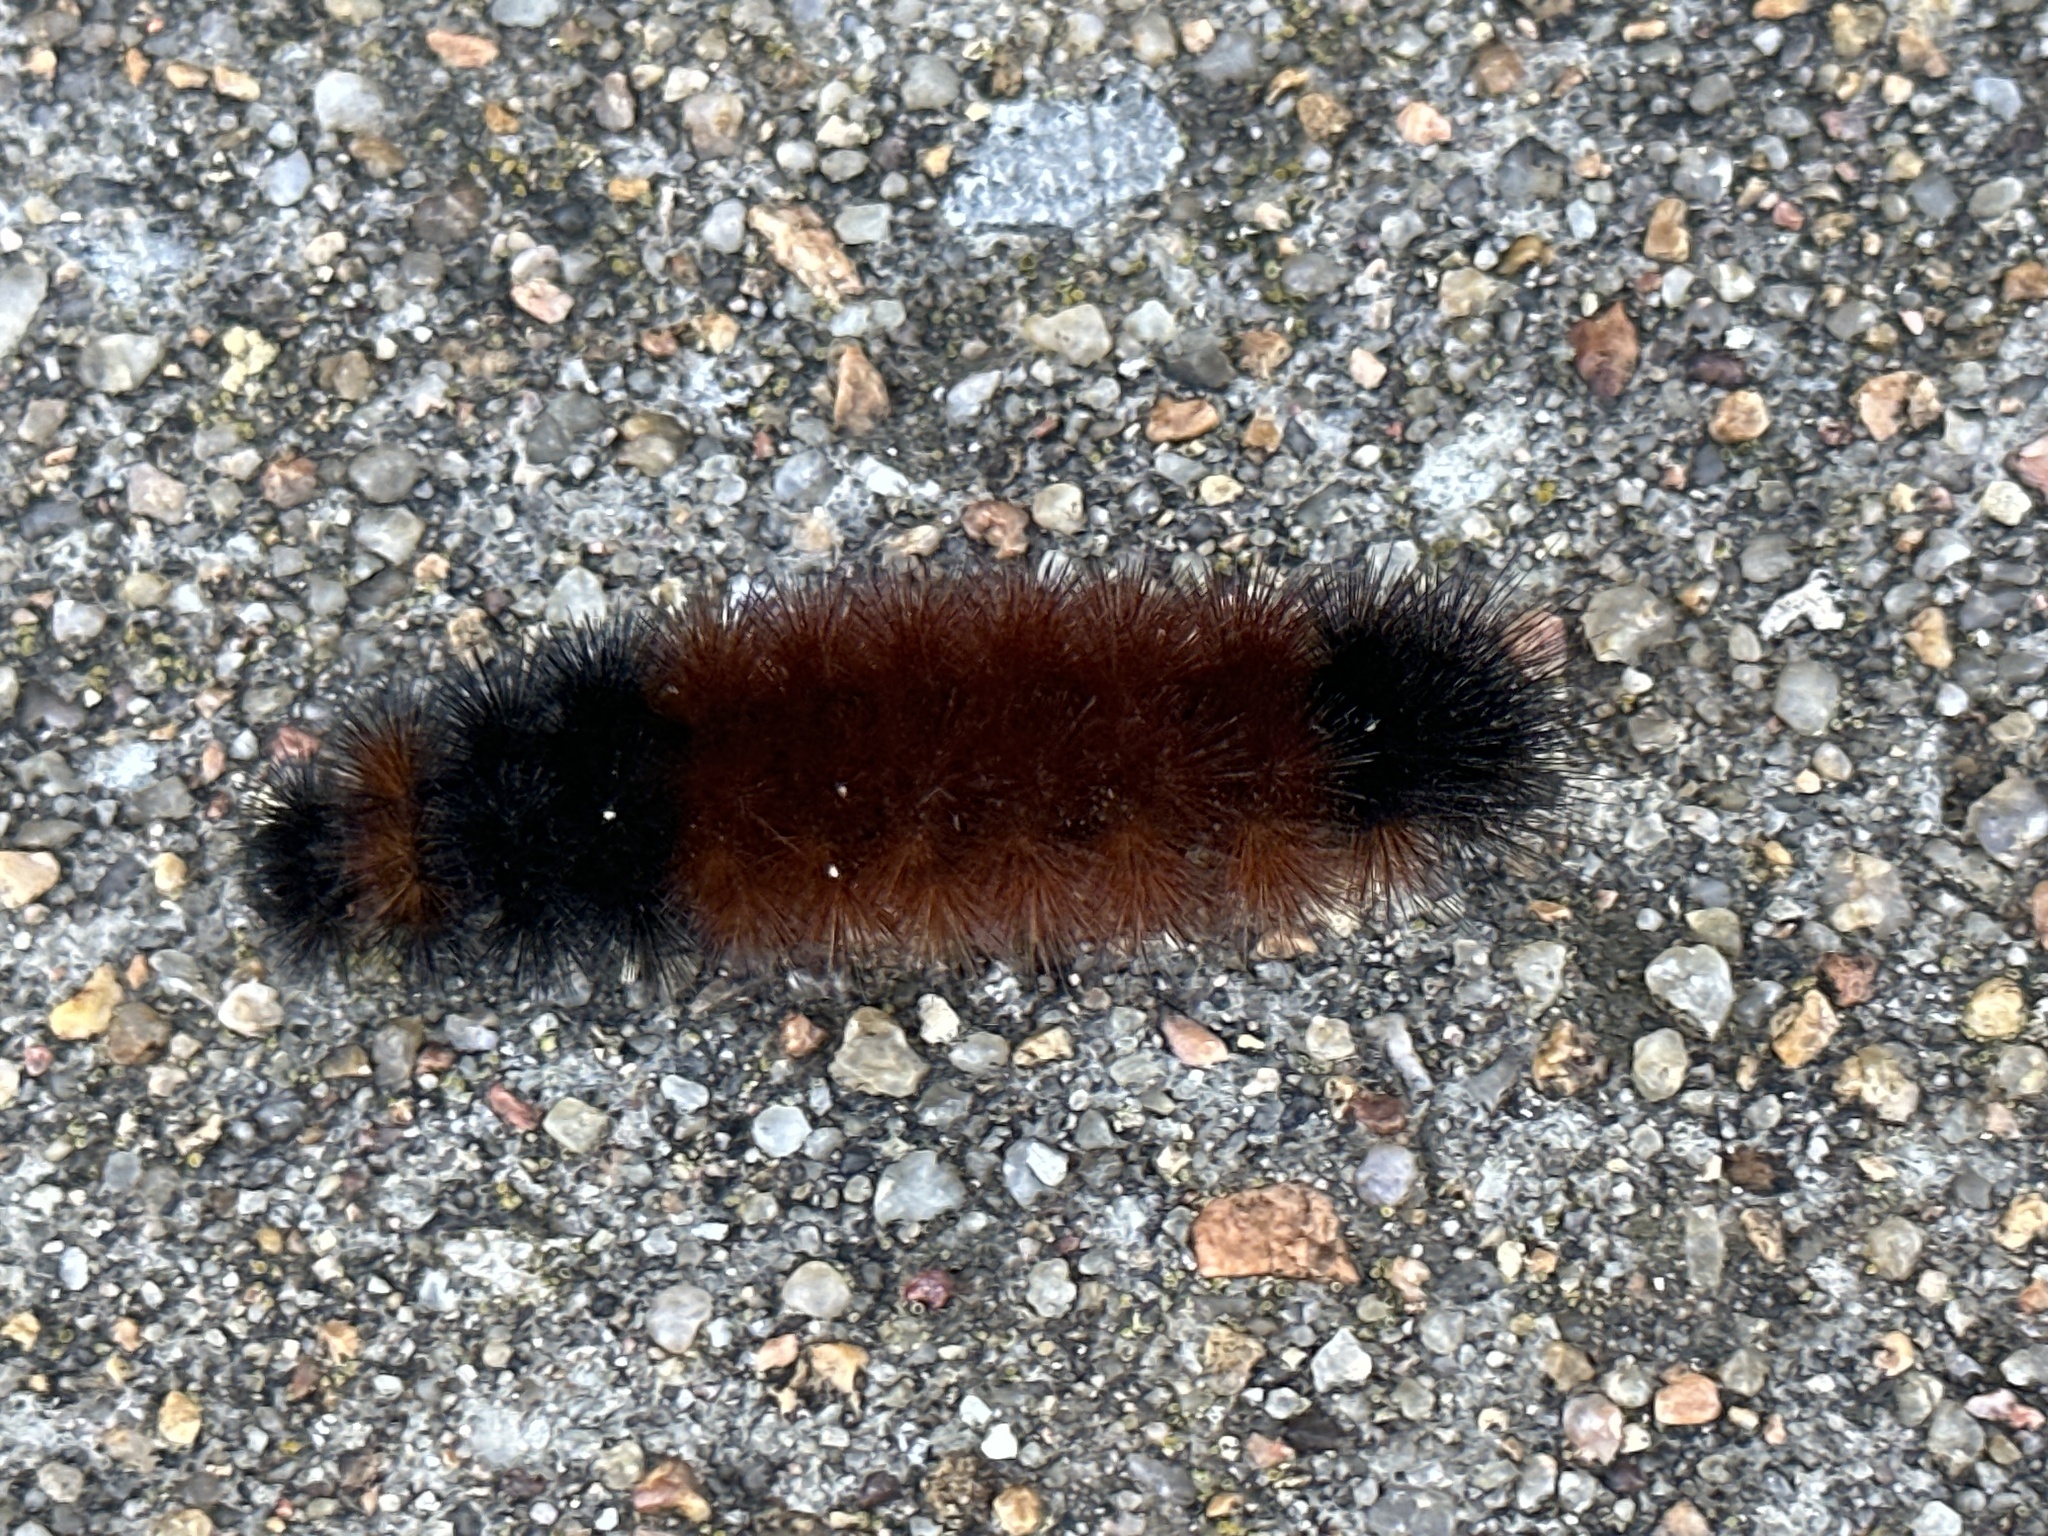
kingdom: Animalia
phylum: Arthropoda
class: Insecta
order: Lepidoptera
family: Erebidae
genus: Pyrrharctia
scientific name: Pyrrharctia isabella
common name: Isabella tiger moth
